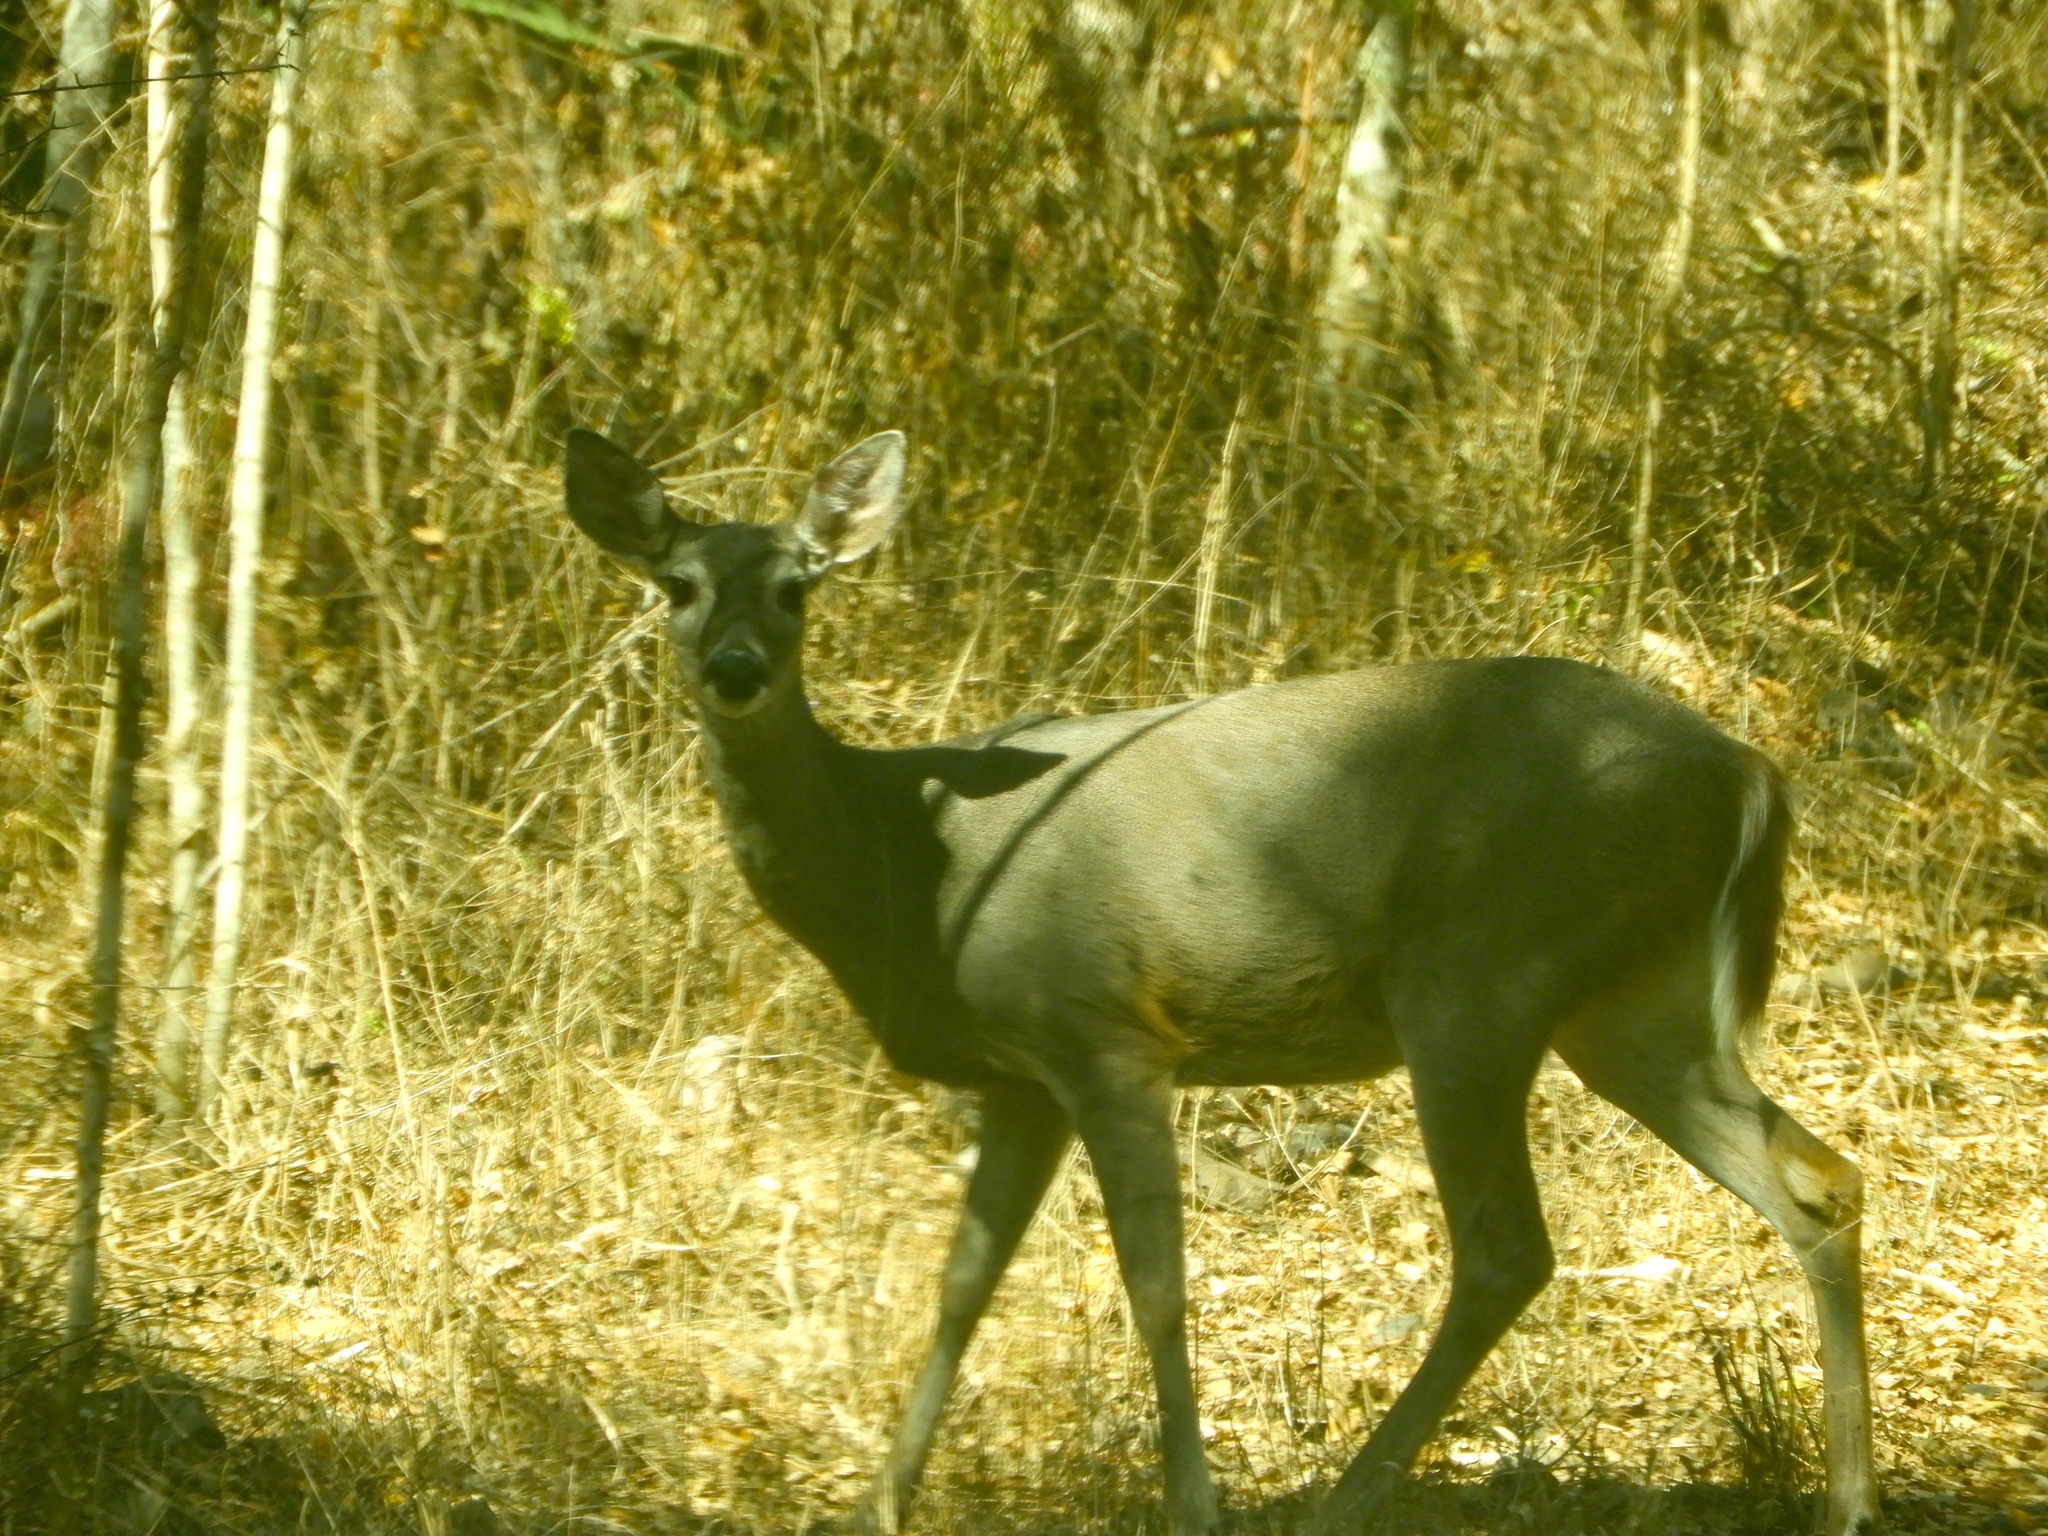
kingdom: Animalia
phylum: Chordata
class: Mammalia
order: Artiodactyla
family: Cervidae
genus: Odocoileus
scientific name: Odocoileus virginianus
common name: White-tailed deer
